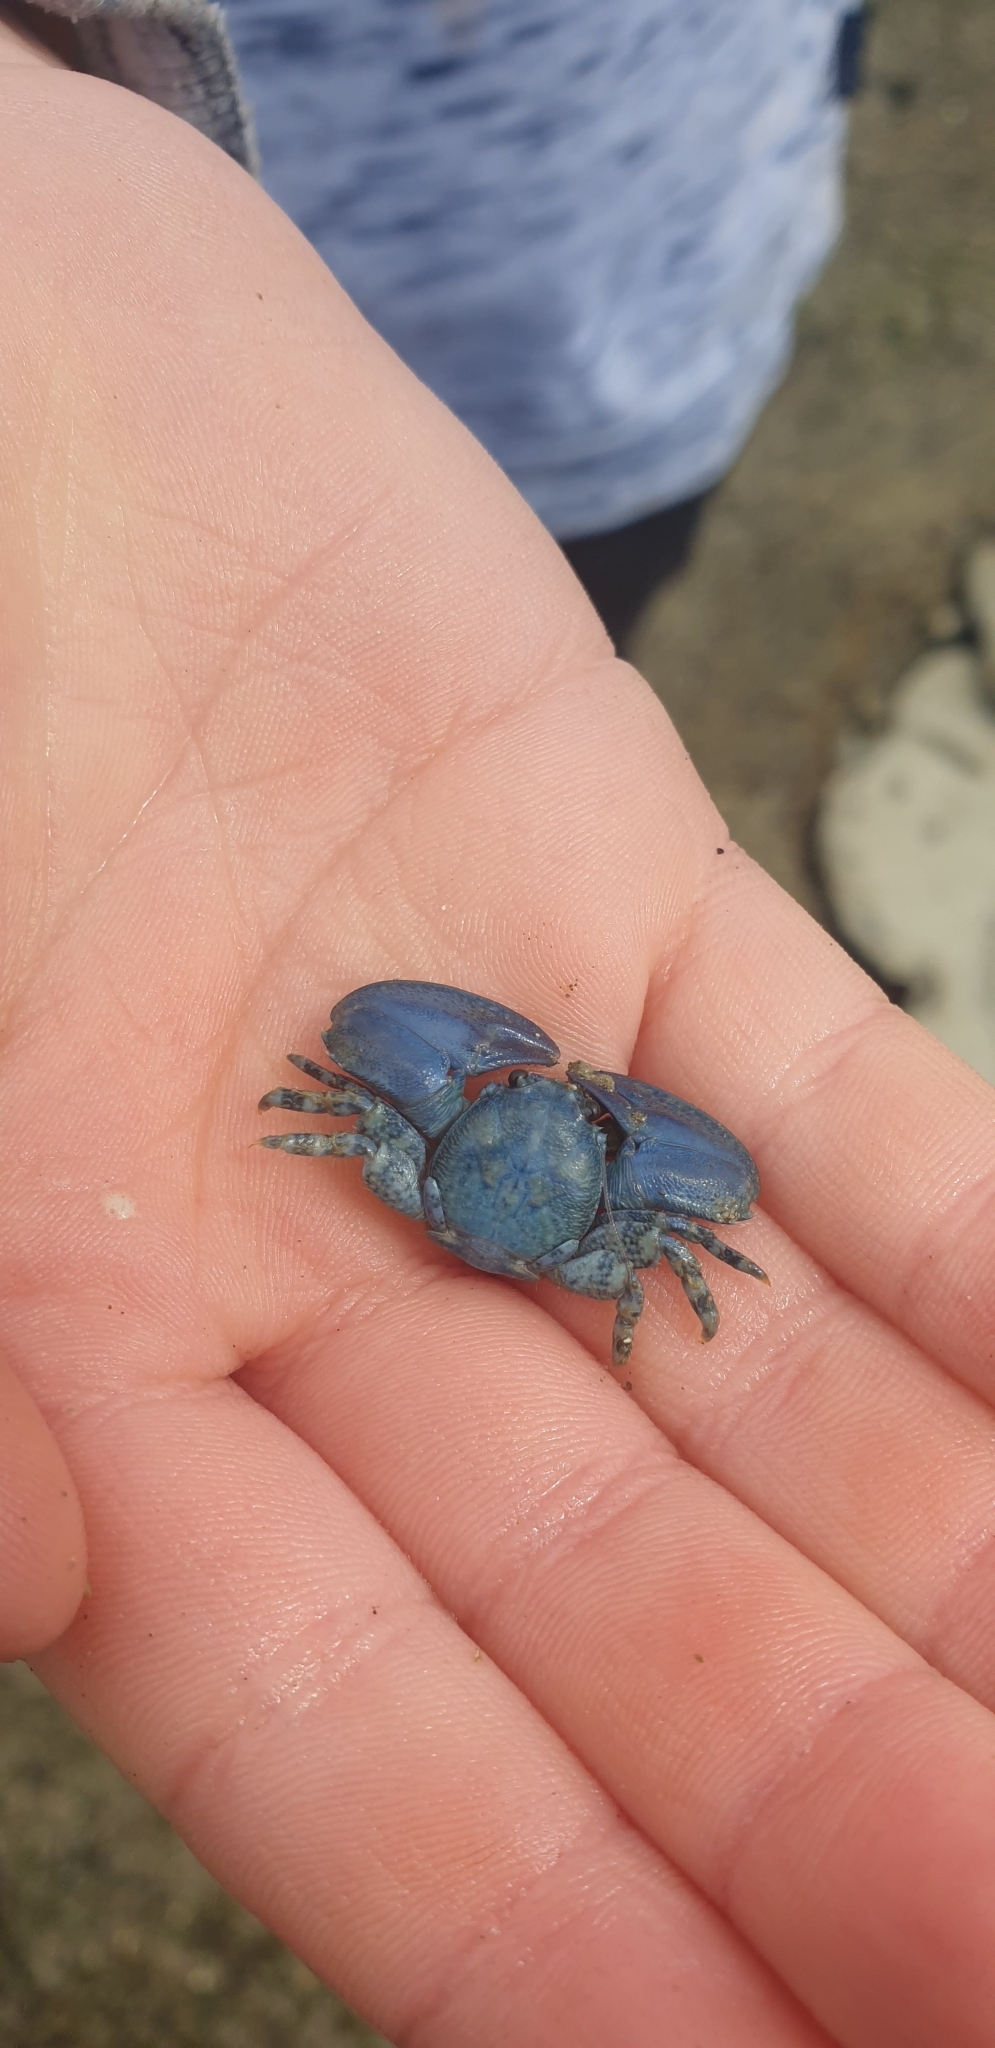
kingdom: Animalia
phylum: Arthropoda
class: Malacostraca
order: Decapoda
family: Porcellanidae
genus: Petrolisthes
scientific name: Petrolisthes elongatus
